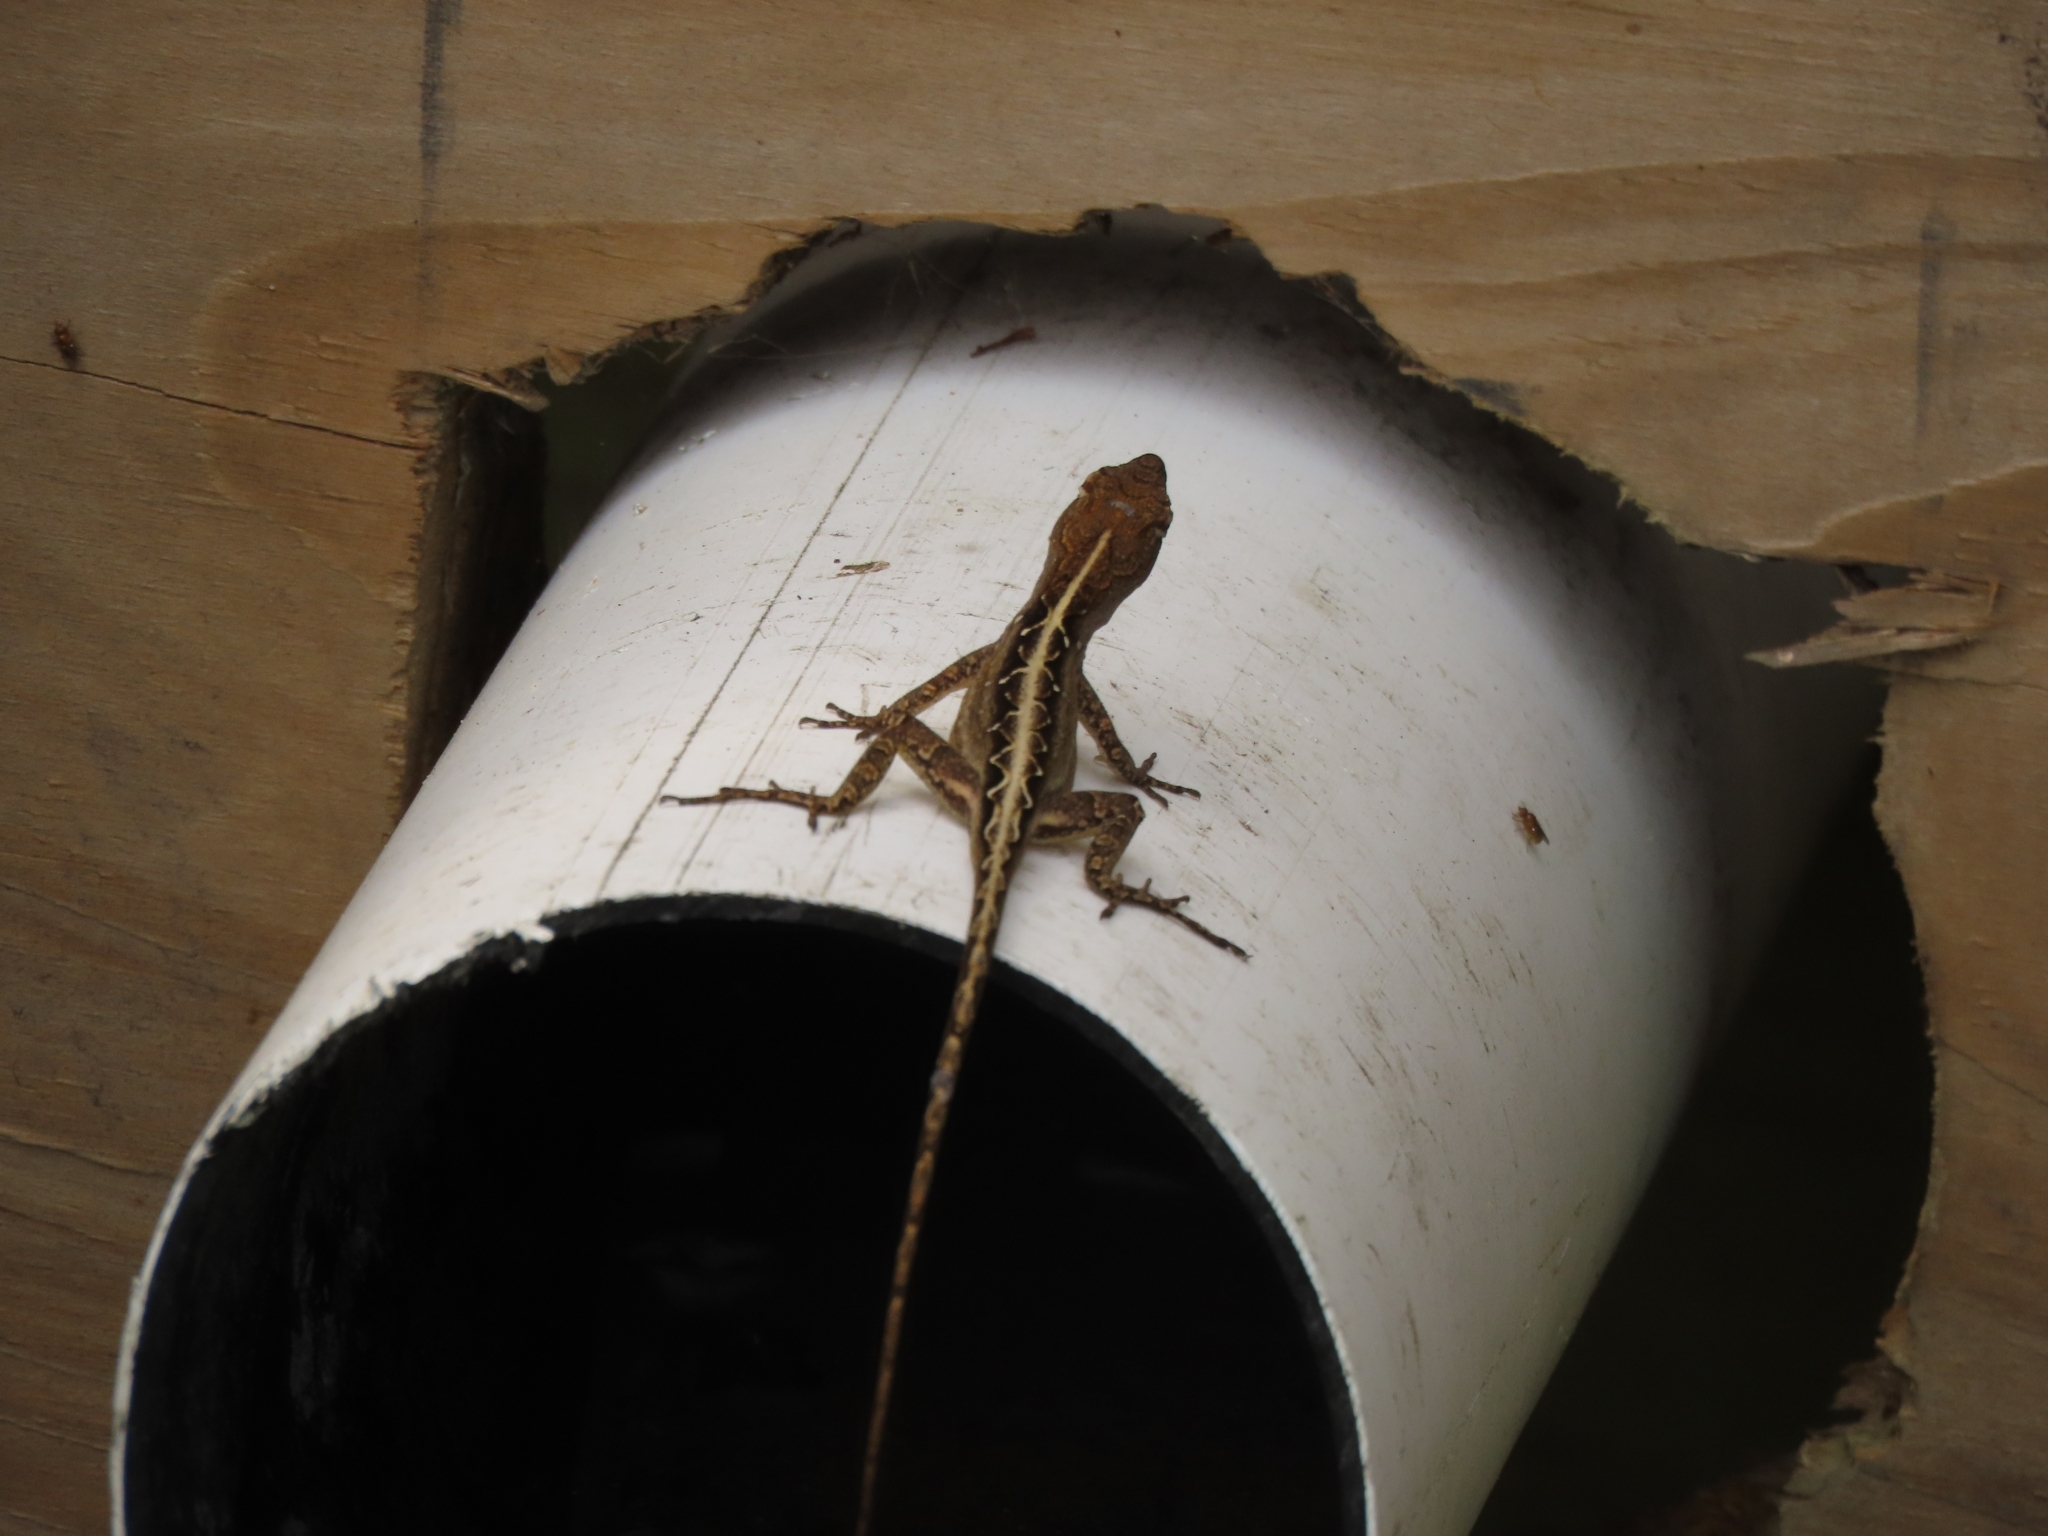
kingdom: Animalia
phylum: Chordata
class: Squamata
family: Dactyloidae
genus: Anolis
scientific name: Anolis sagrei
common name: Brown anole
